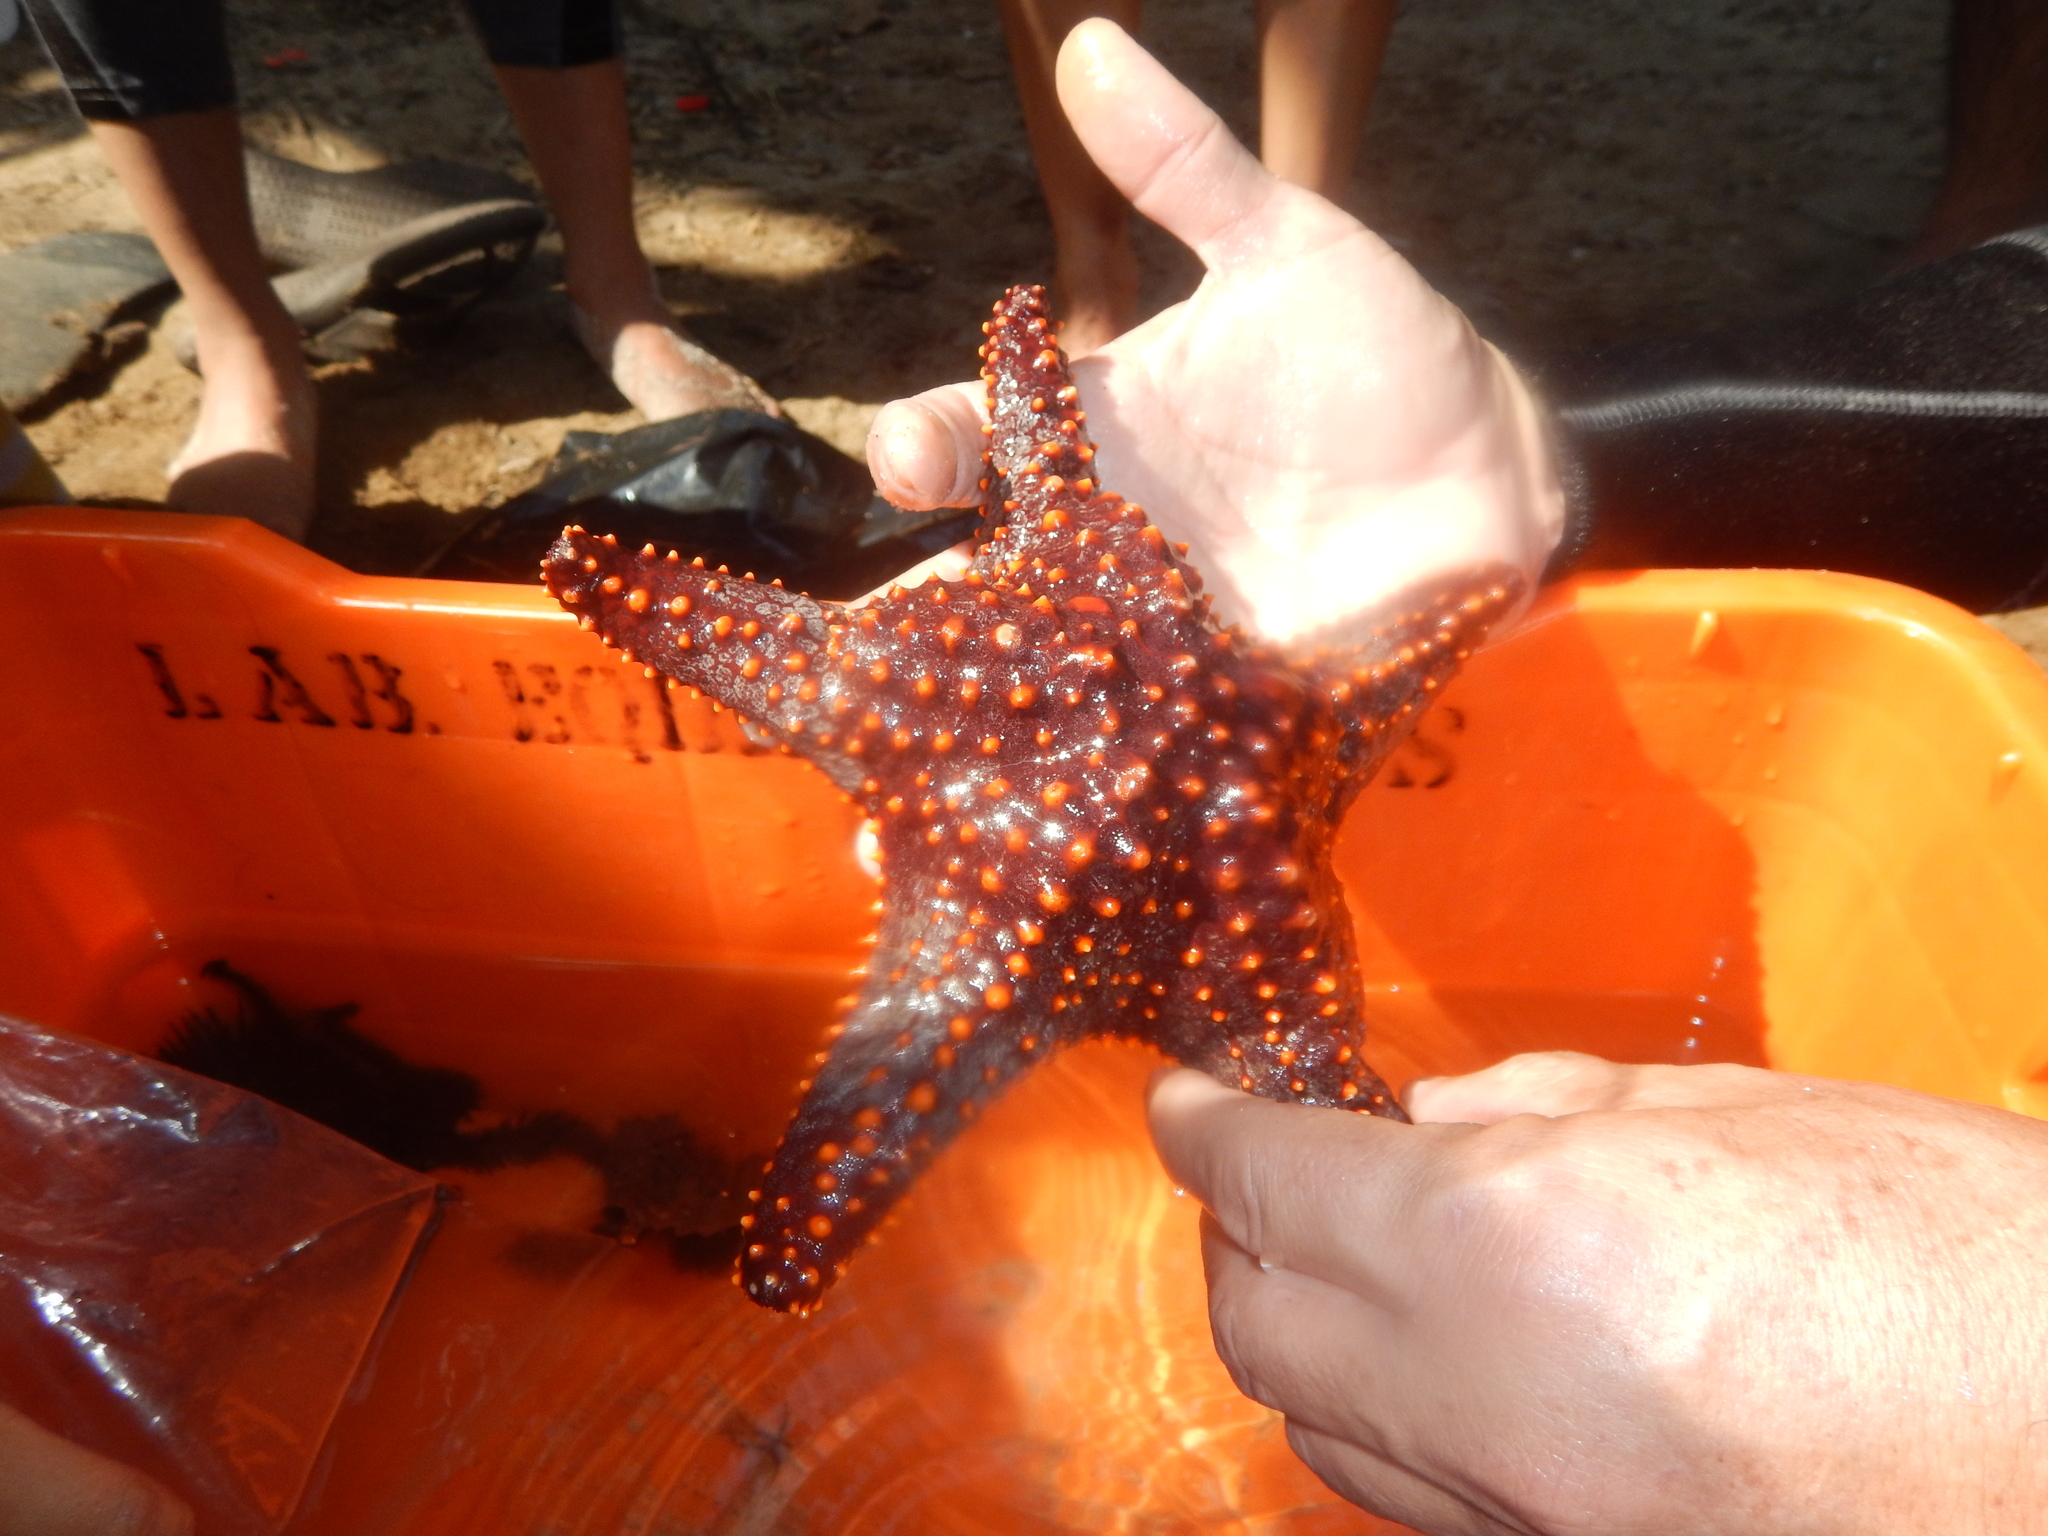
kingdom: Animalia
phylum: Echinodermata
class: Asteroidea
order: Valvatida
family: Oreasteridae
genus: Pentaceraster
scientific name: Pentaceraster cumingi
